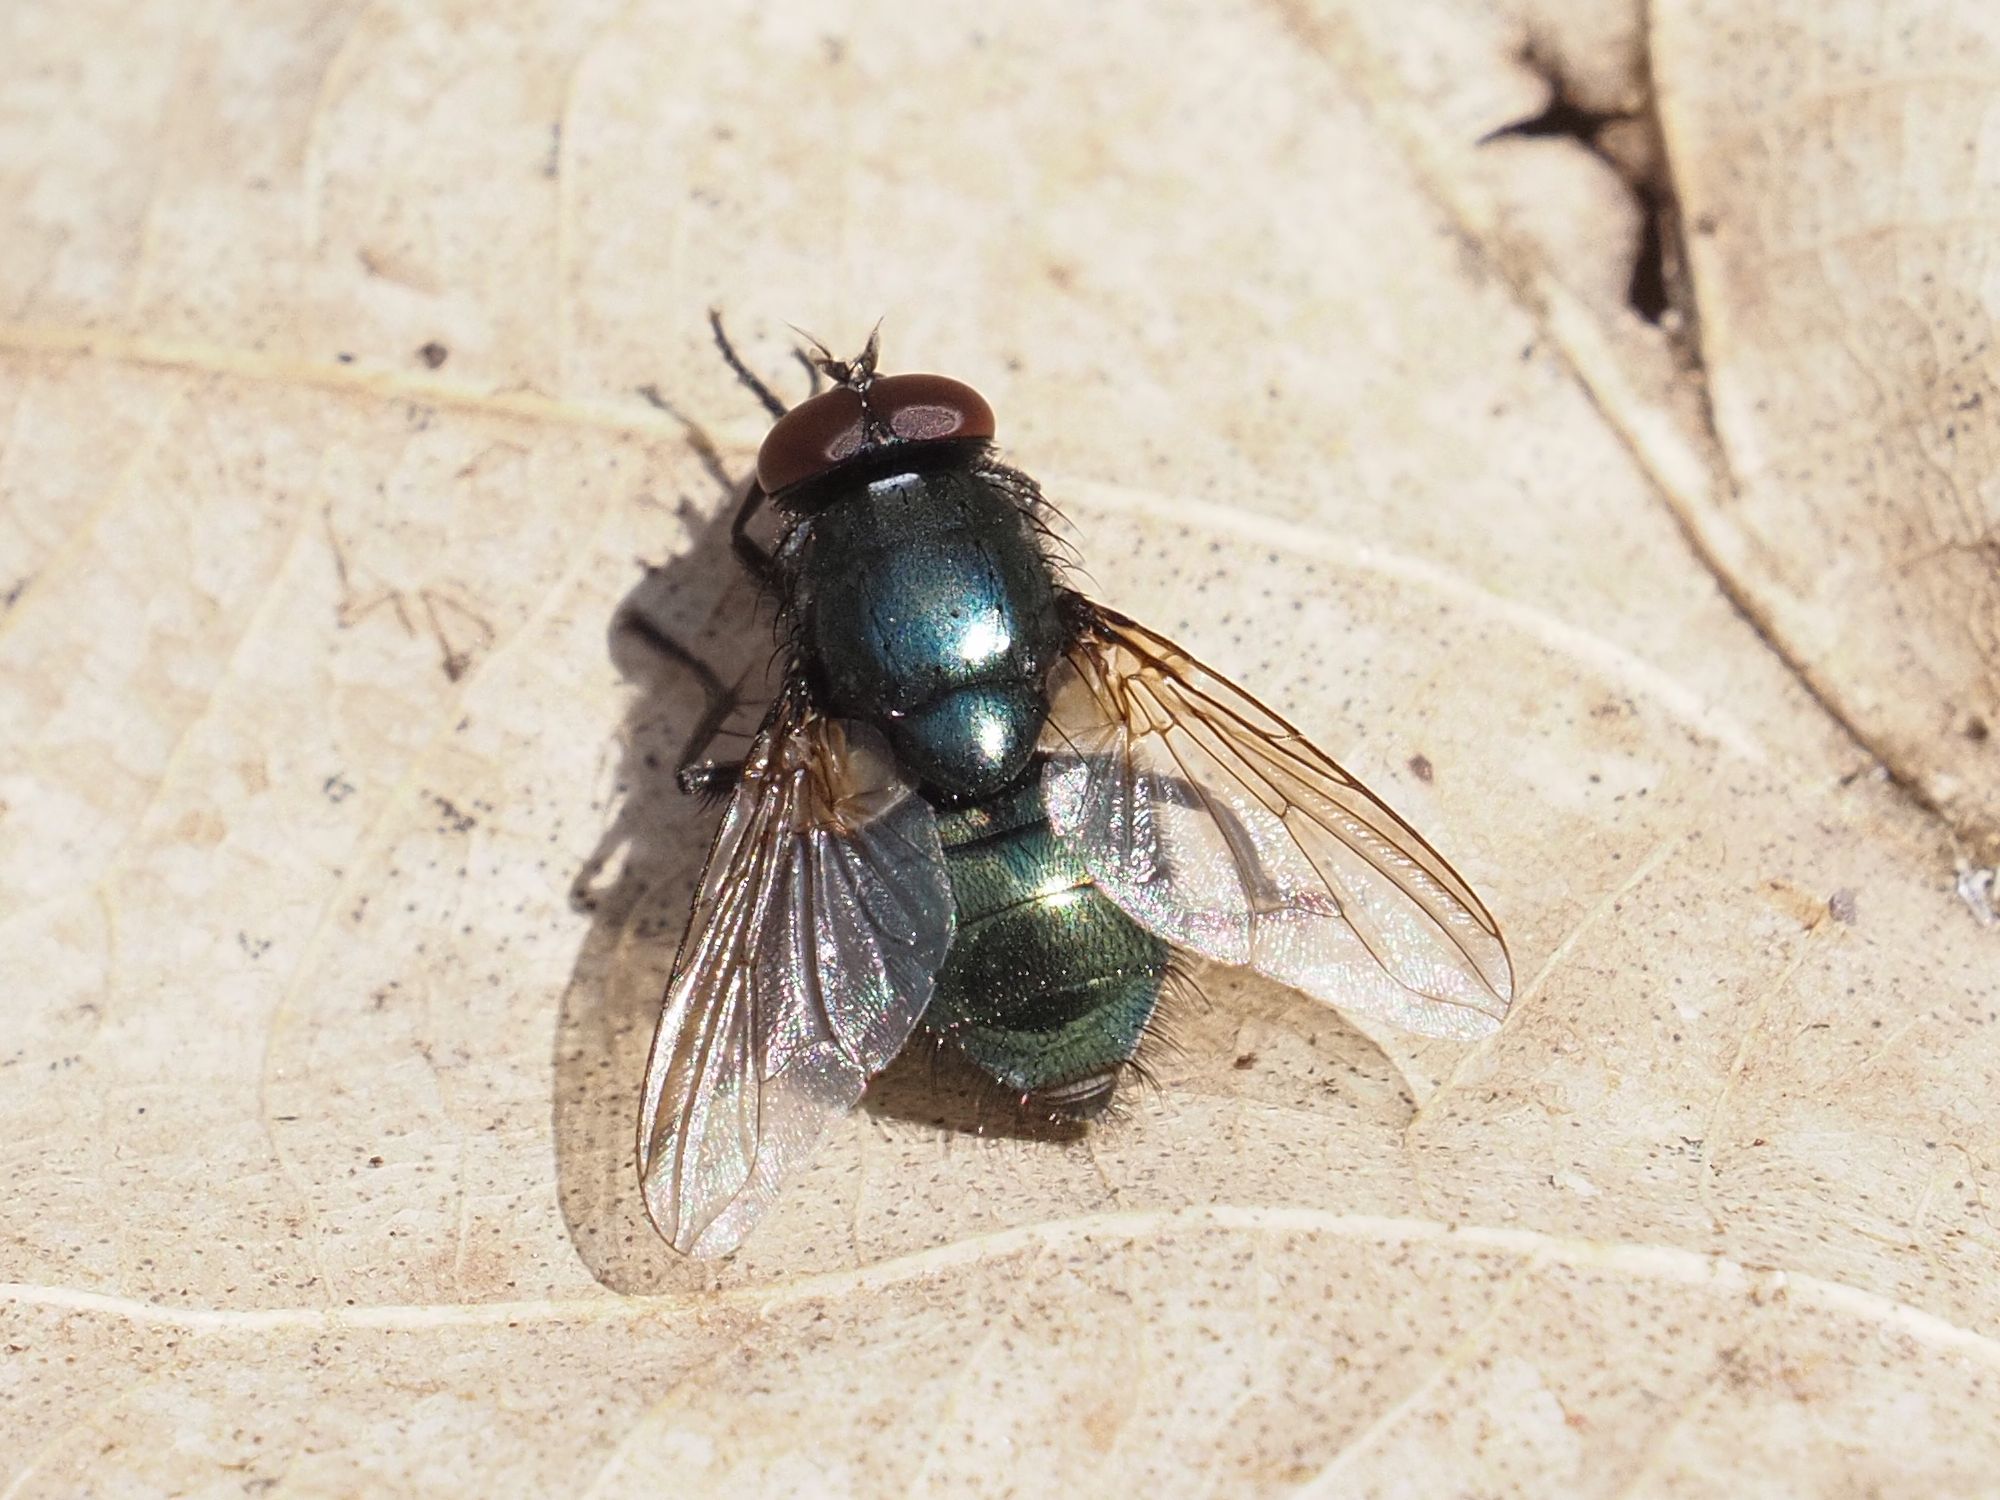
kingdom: Animalia
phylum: Arthropoda
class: Insecta
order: Diptera
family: Muscidae
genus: Eudasyphora
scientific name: Eudasyphora cyanicolor
